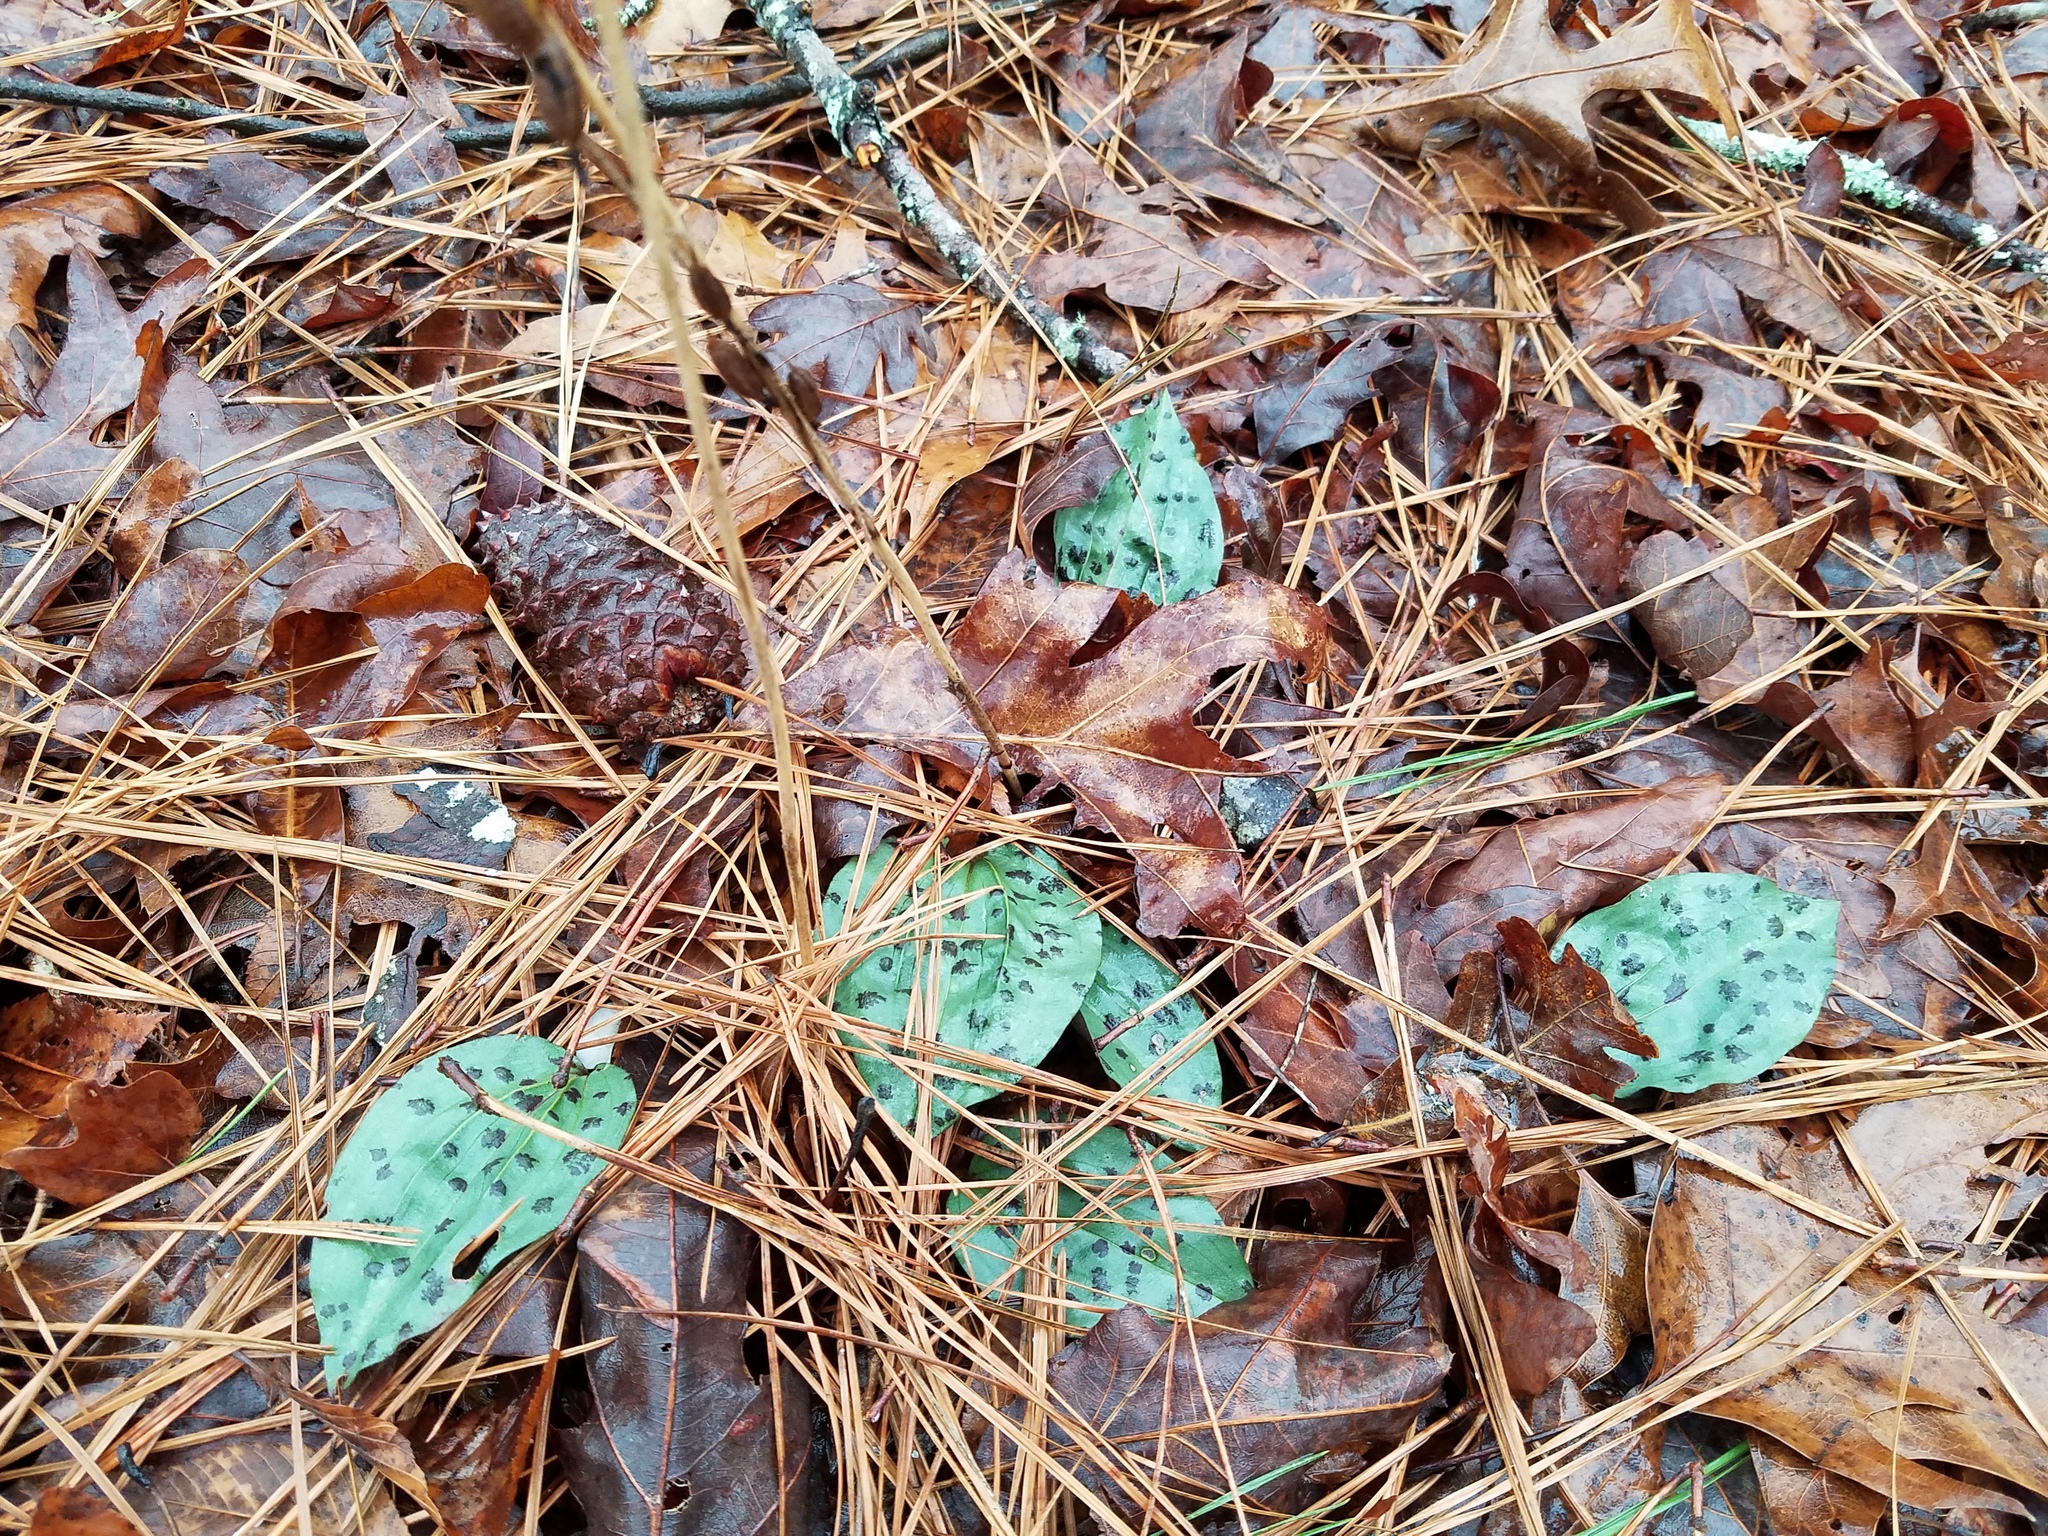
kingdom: Plantae
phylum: Tracheophyta
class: Liliopsida
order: Asparagales
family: Orchidaceae
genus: Tipularia
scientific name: Tipularia discolor
